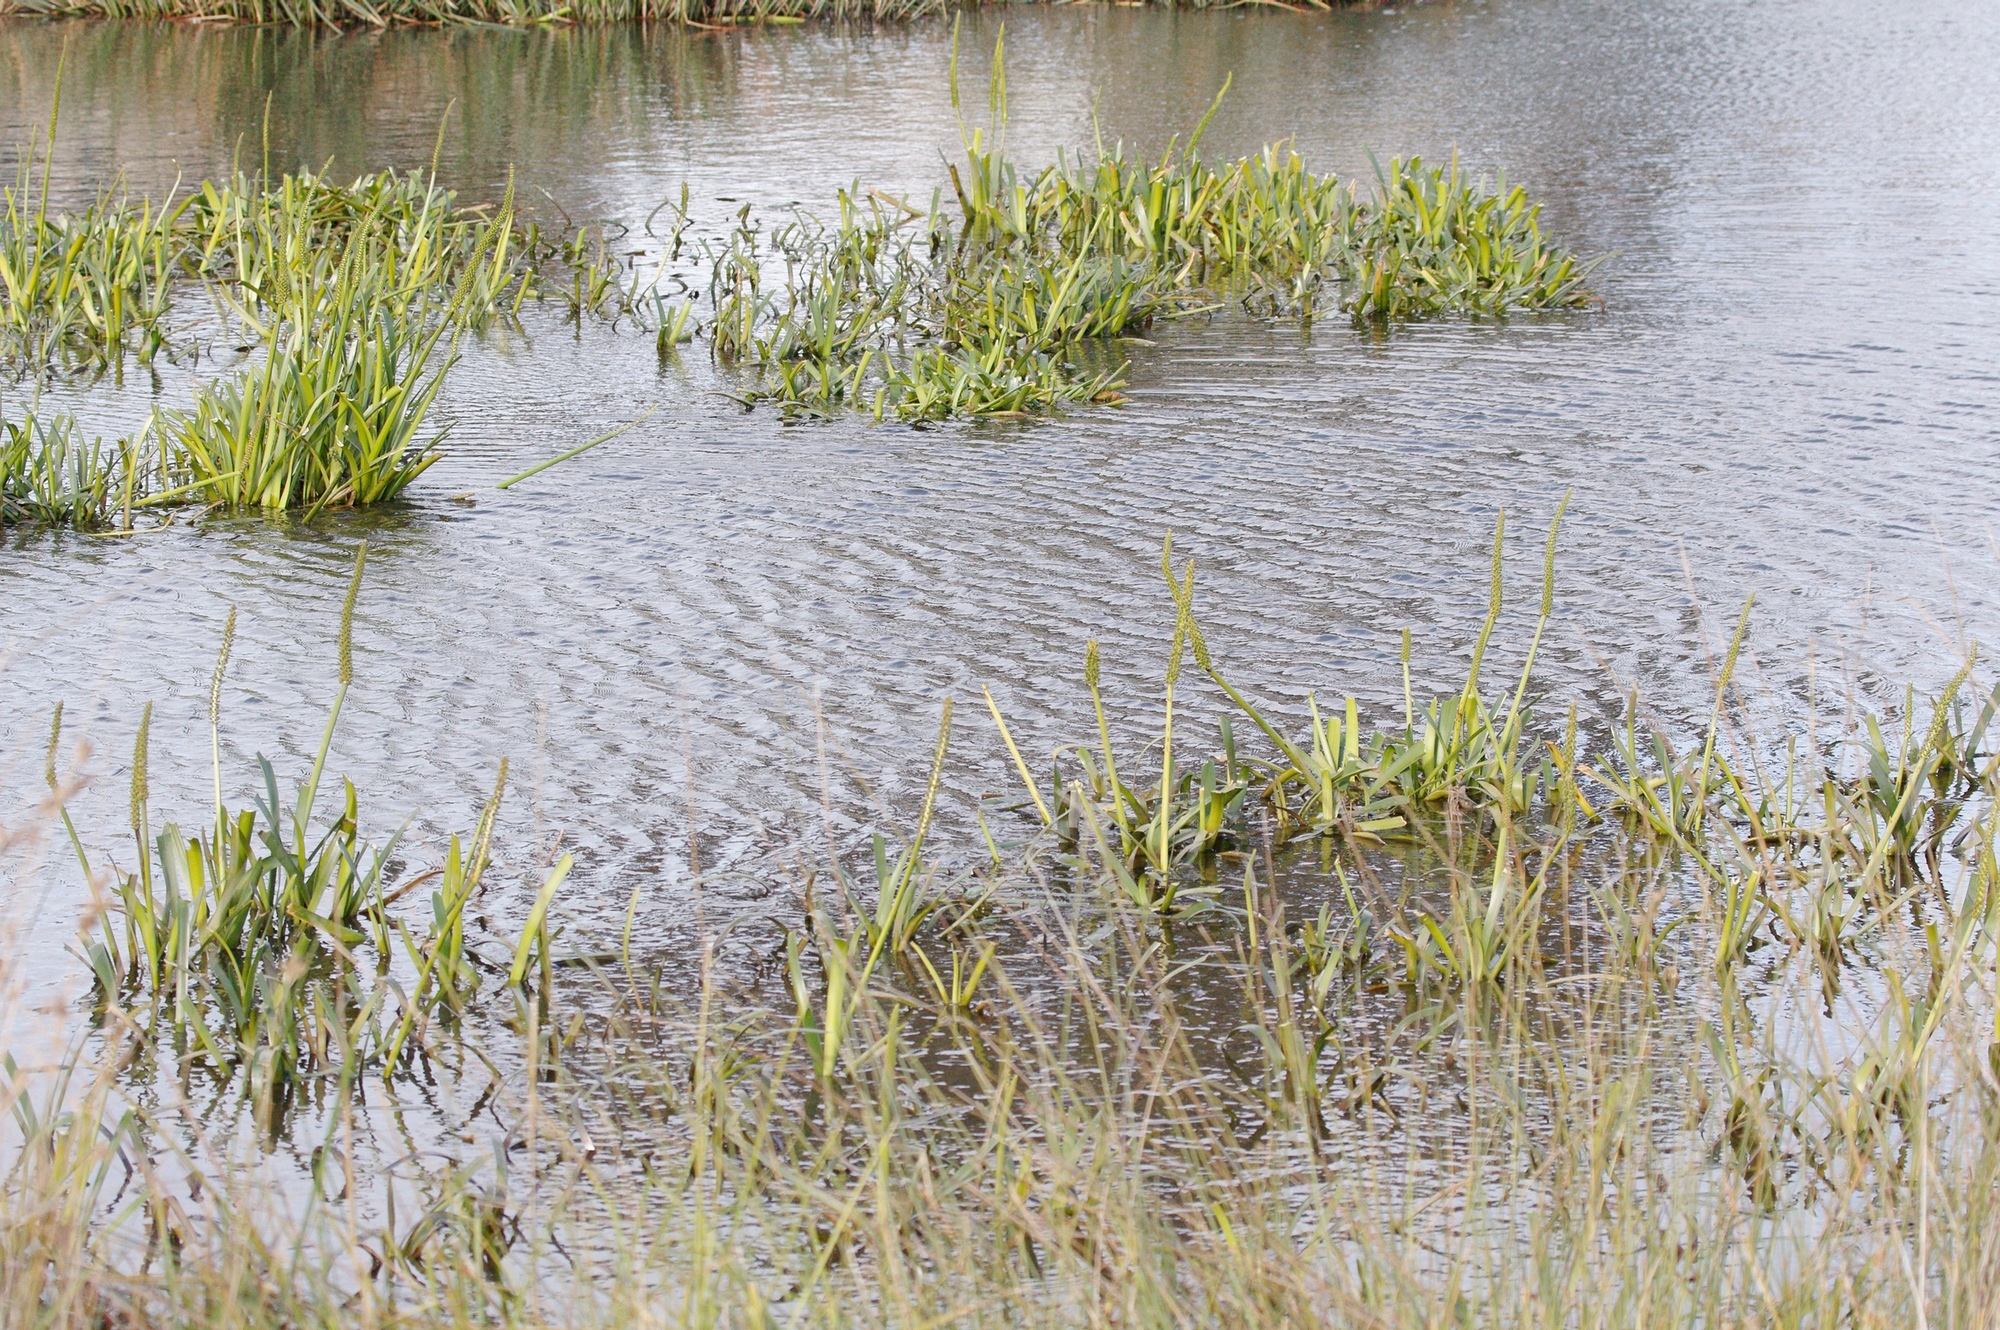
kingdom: Plantae
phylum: Tracheophyta
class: Liliopsida
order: Alismatales
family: Juncaginaceae
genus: Cycnogeton
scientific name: Cycnogeton procerum
